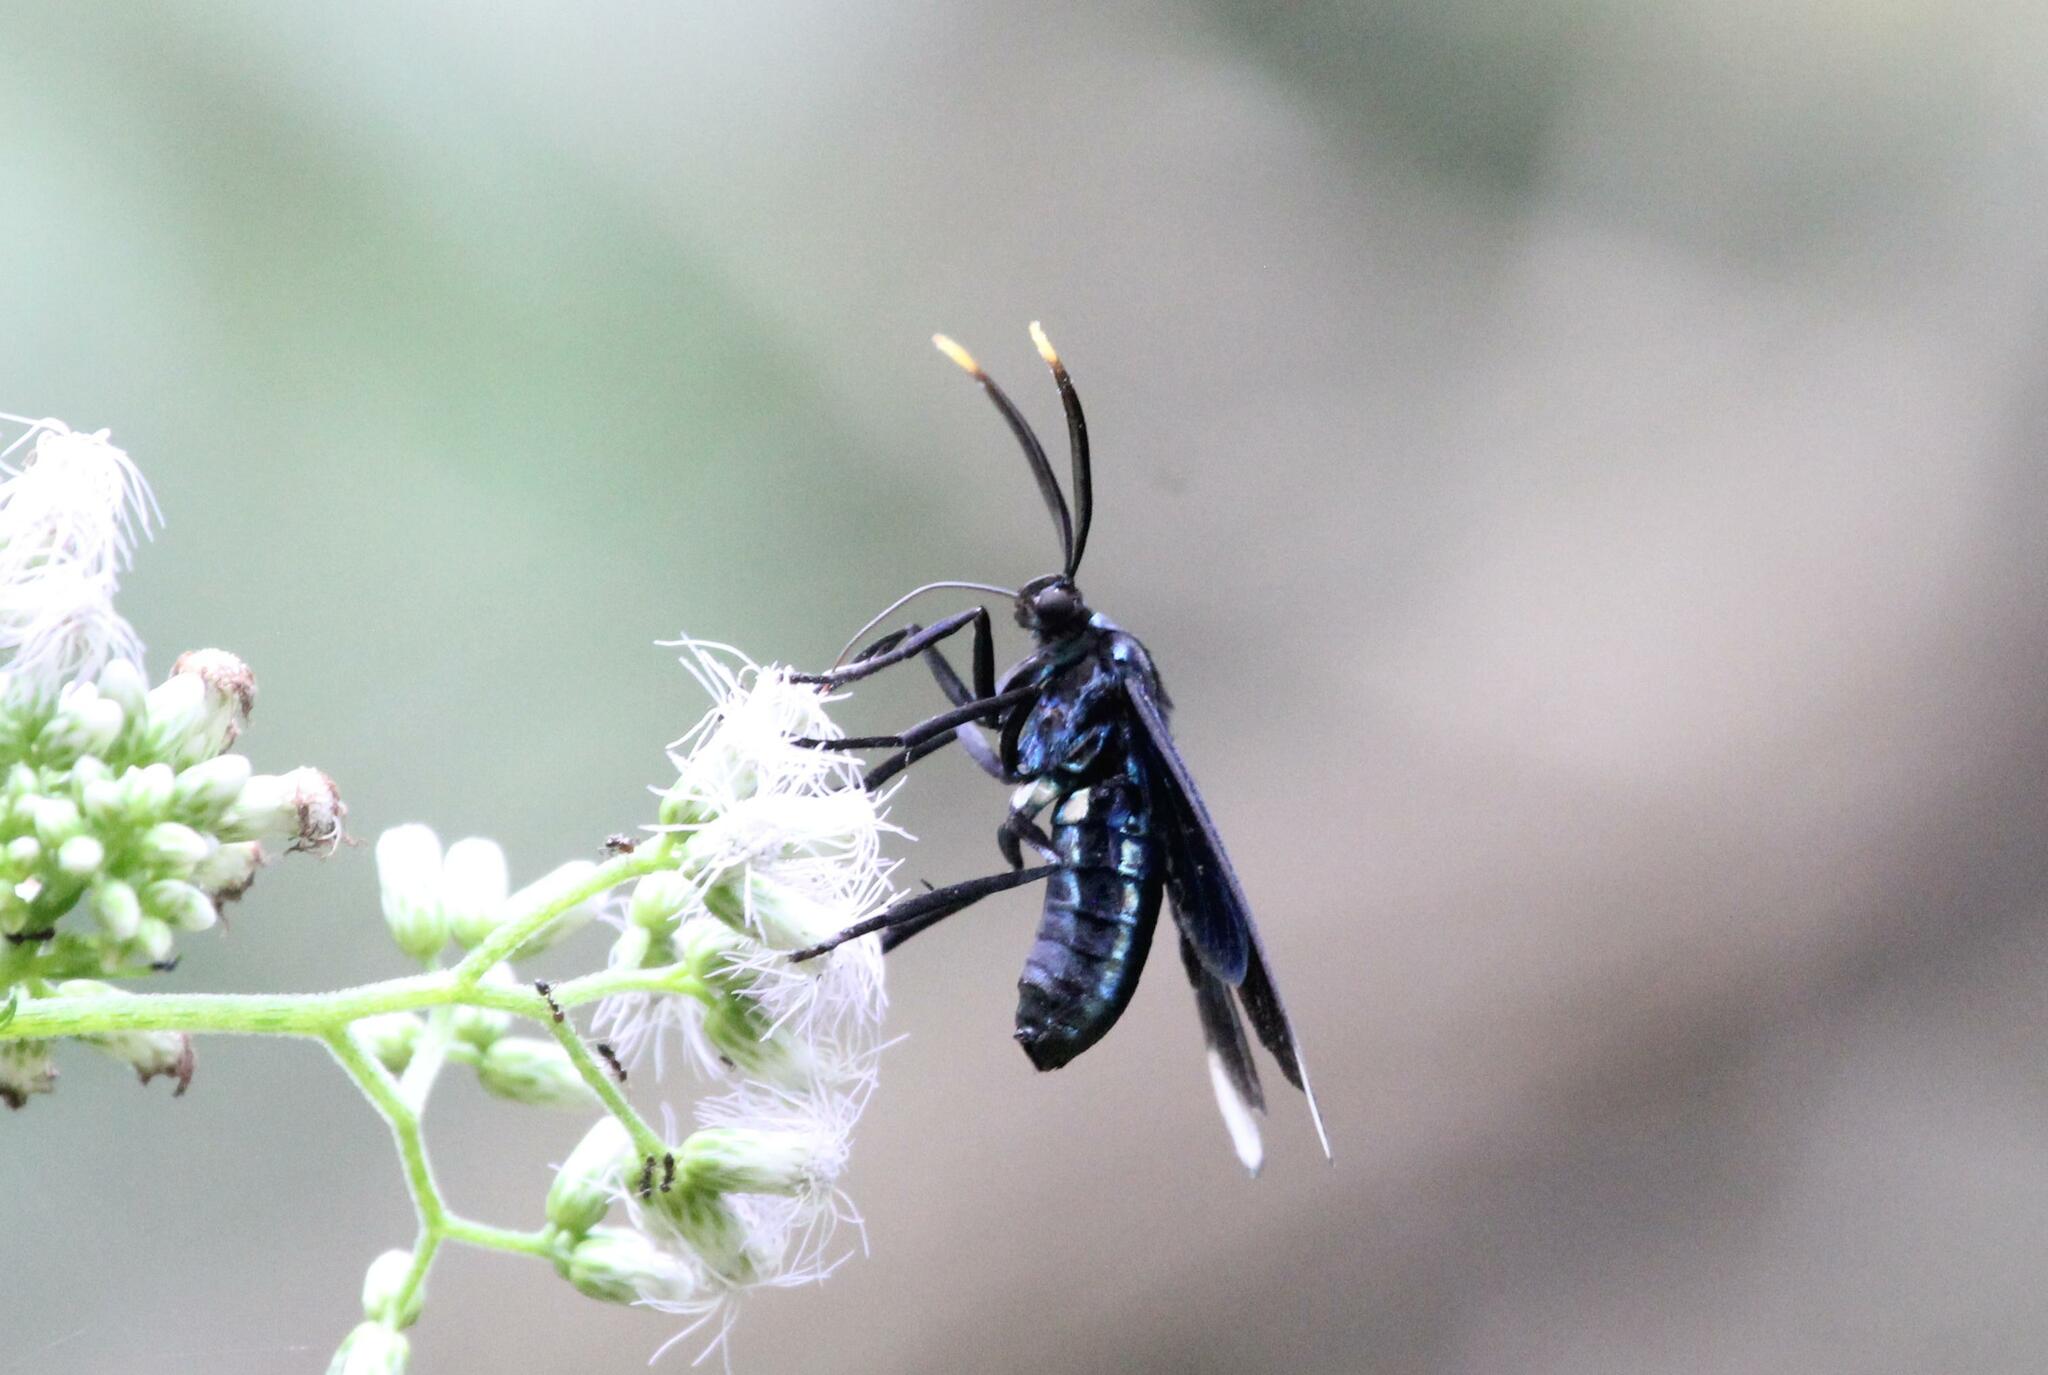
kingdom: Animalia
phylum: Arthropoda
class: Insecta
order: Lepidoptera
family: Erebidae
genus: Timalus
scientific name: Timalus leucomela
